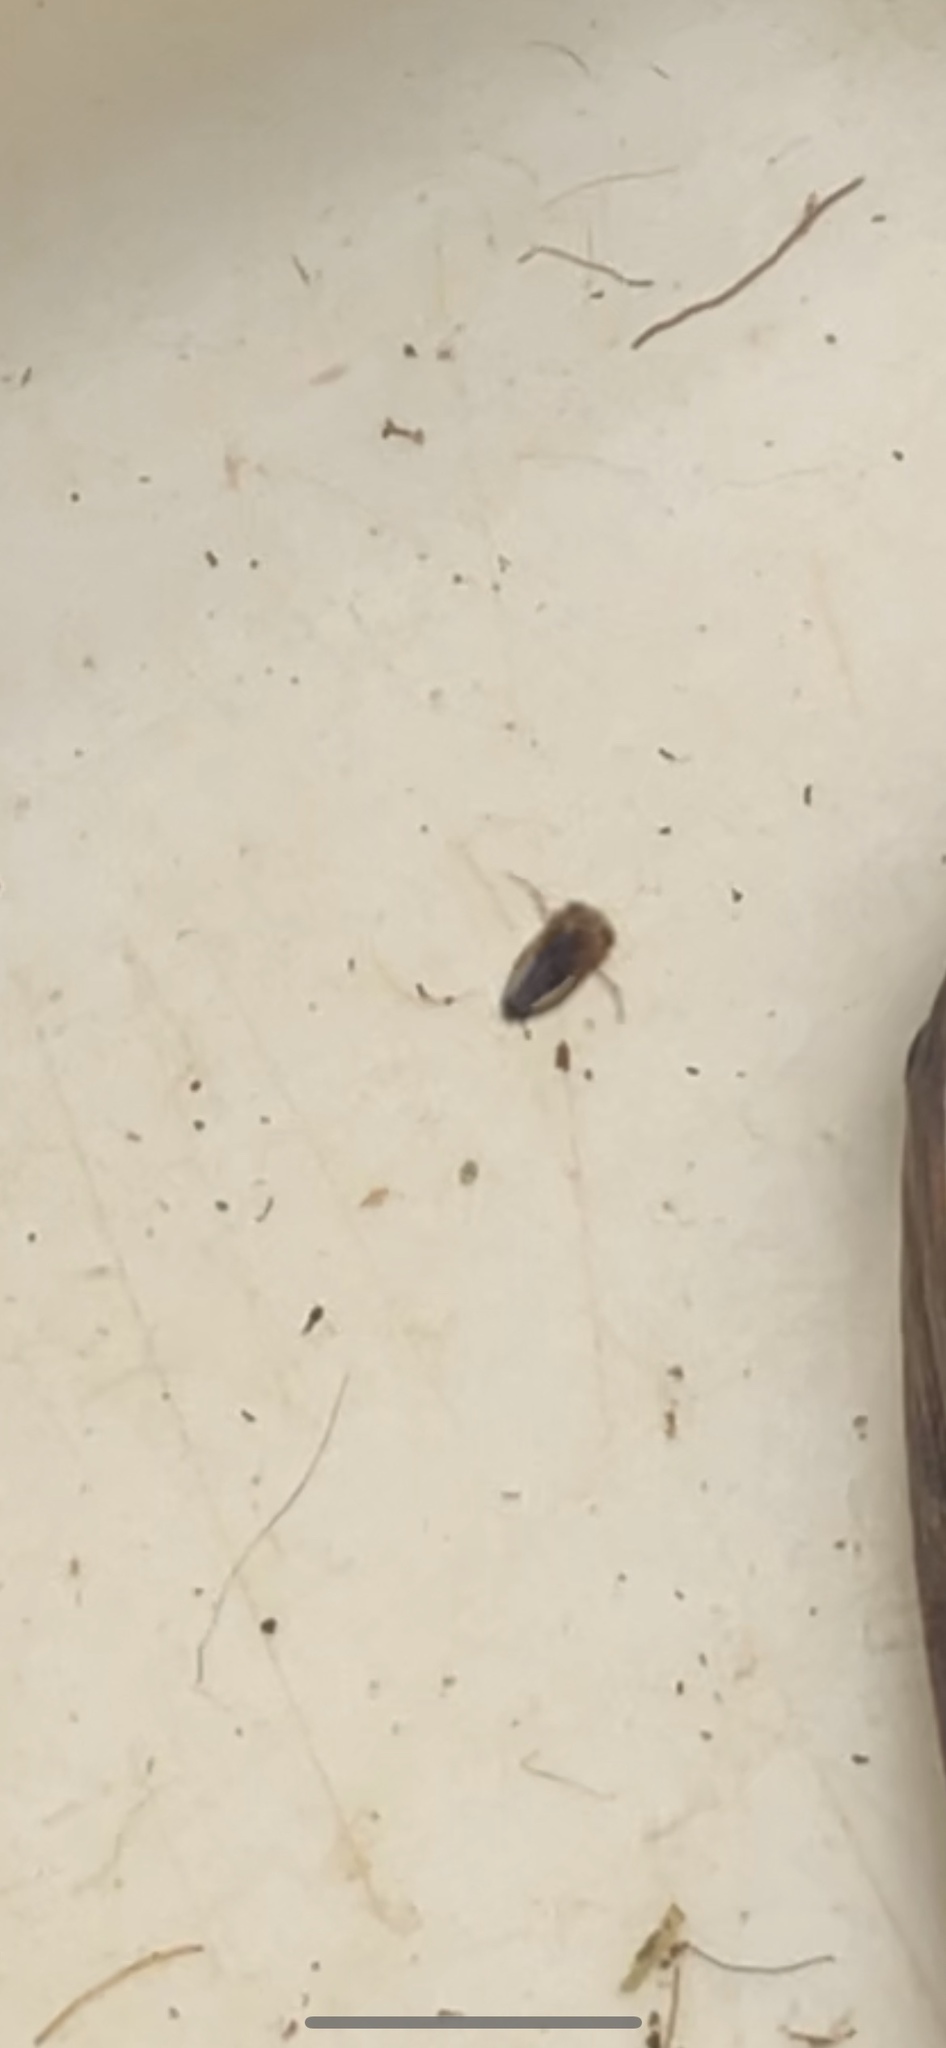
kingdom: Animalia
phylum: Arthropoda
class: Insecta
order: Hemiptera
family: Pleidae
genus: Plea
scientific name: Plea minutissima
